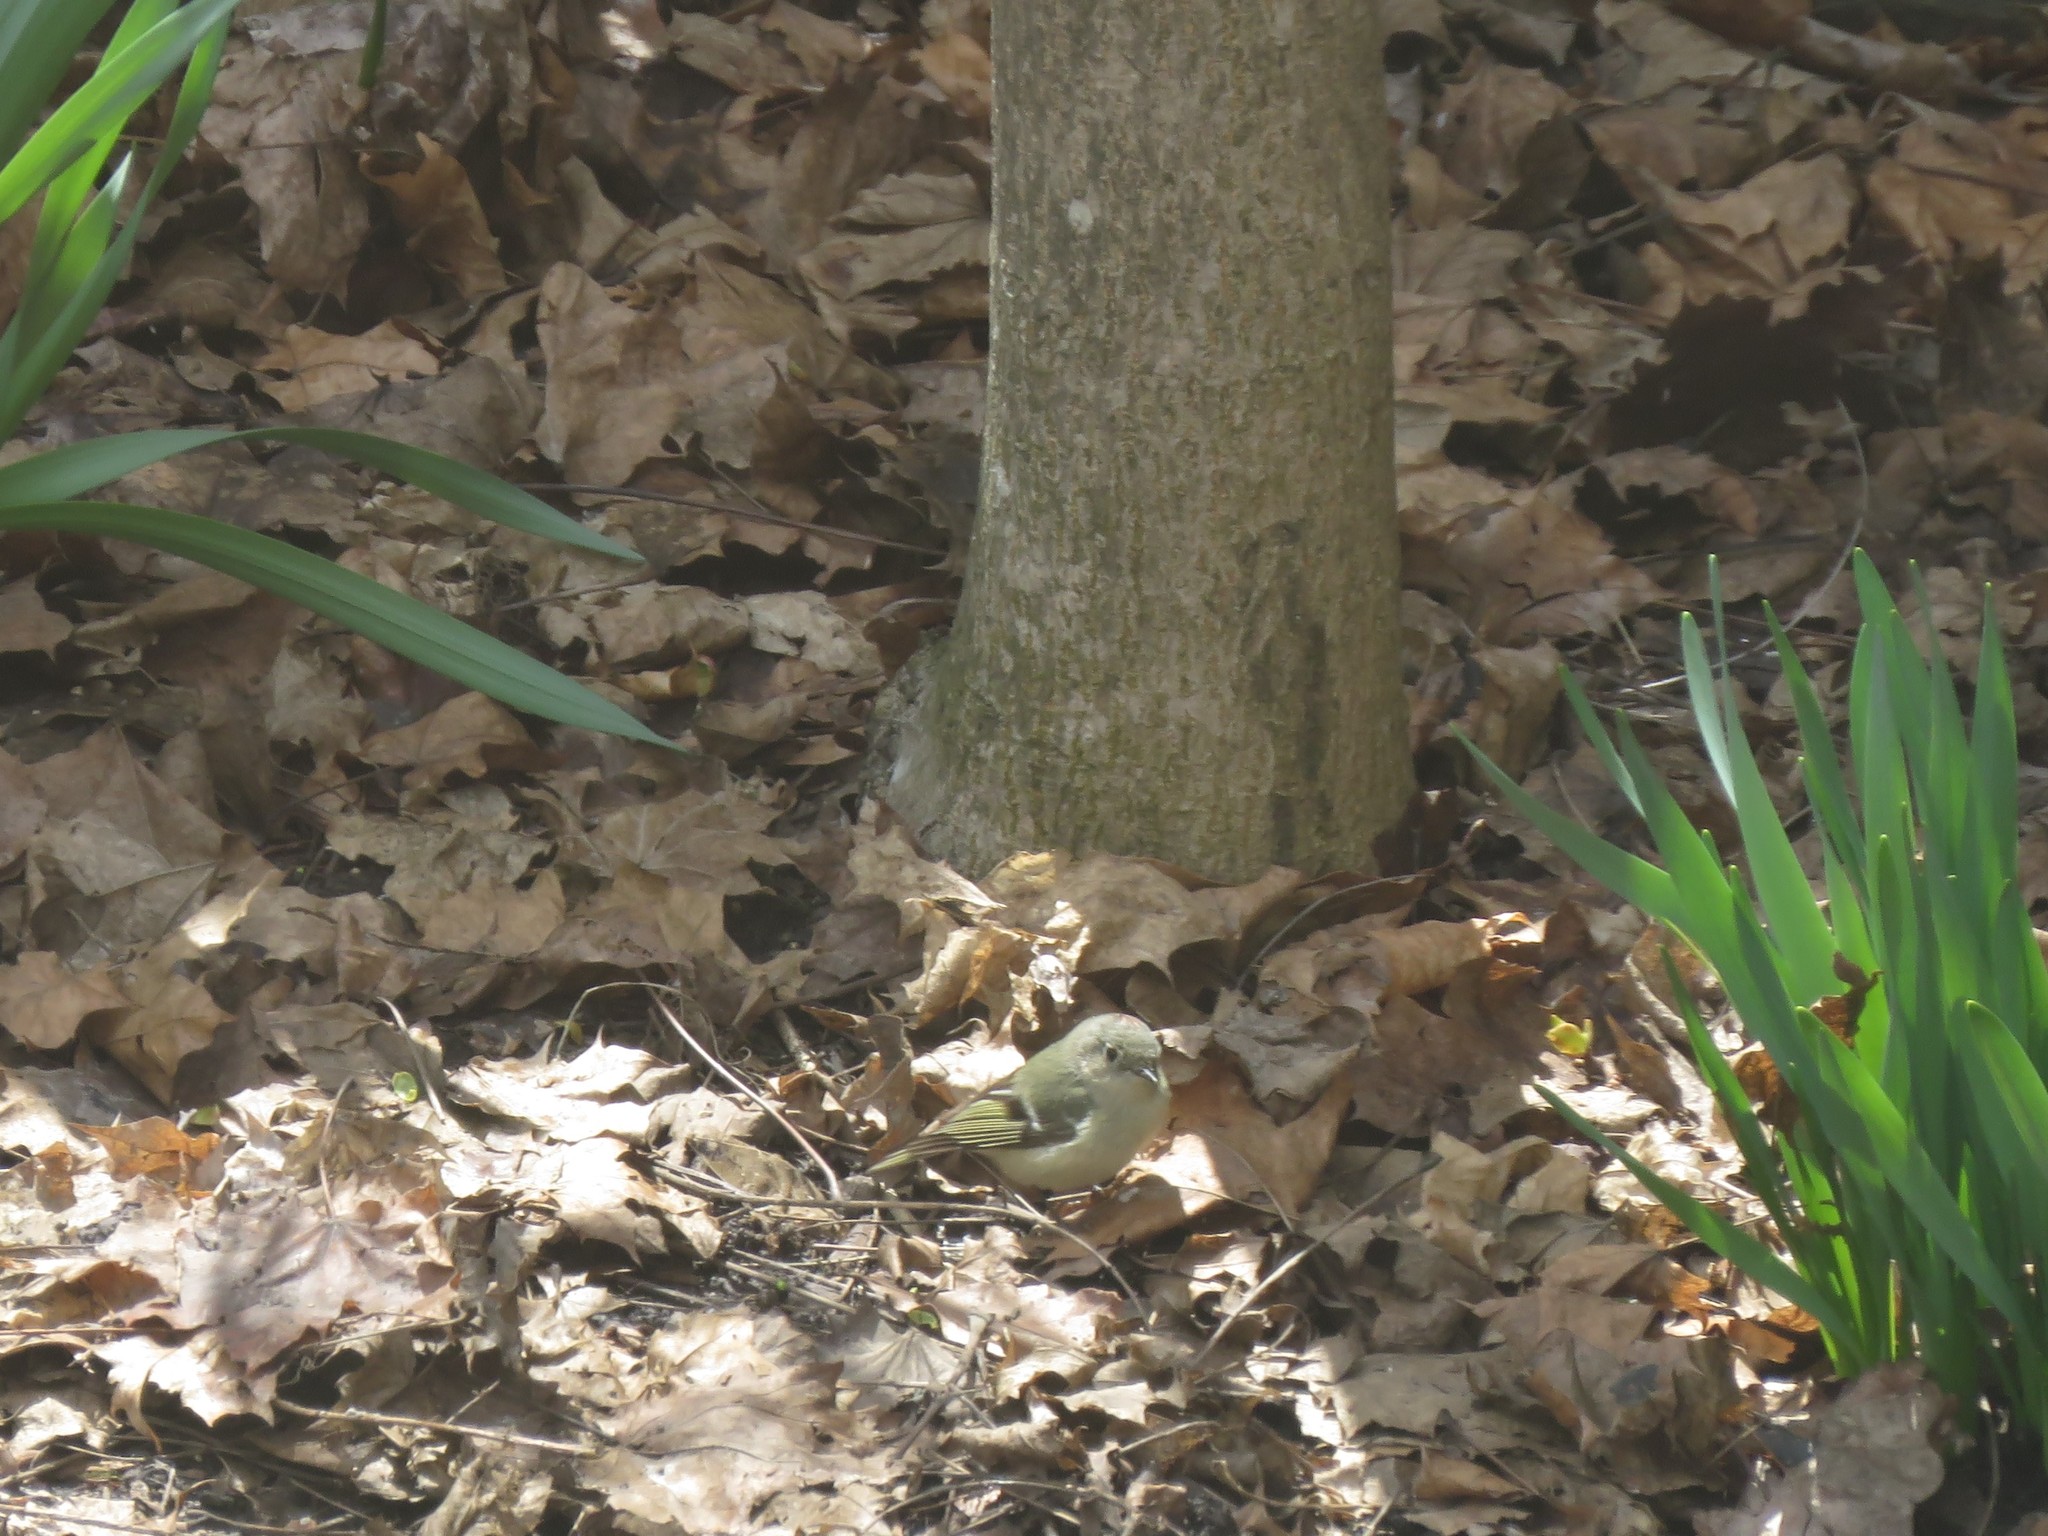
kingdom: Animalia
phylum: Chordata
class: Aves
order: Passeriformes
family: Regulidae
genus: Regulus
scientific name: Regulus calendula
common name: Ruby-crowned kinglet
